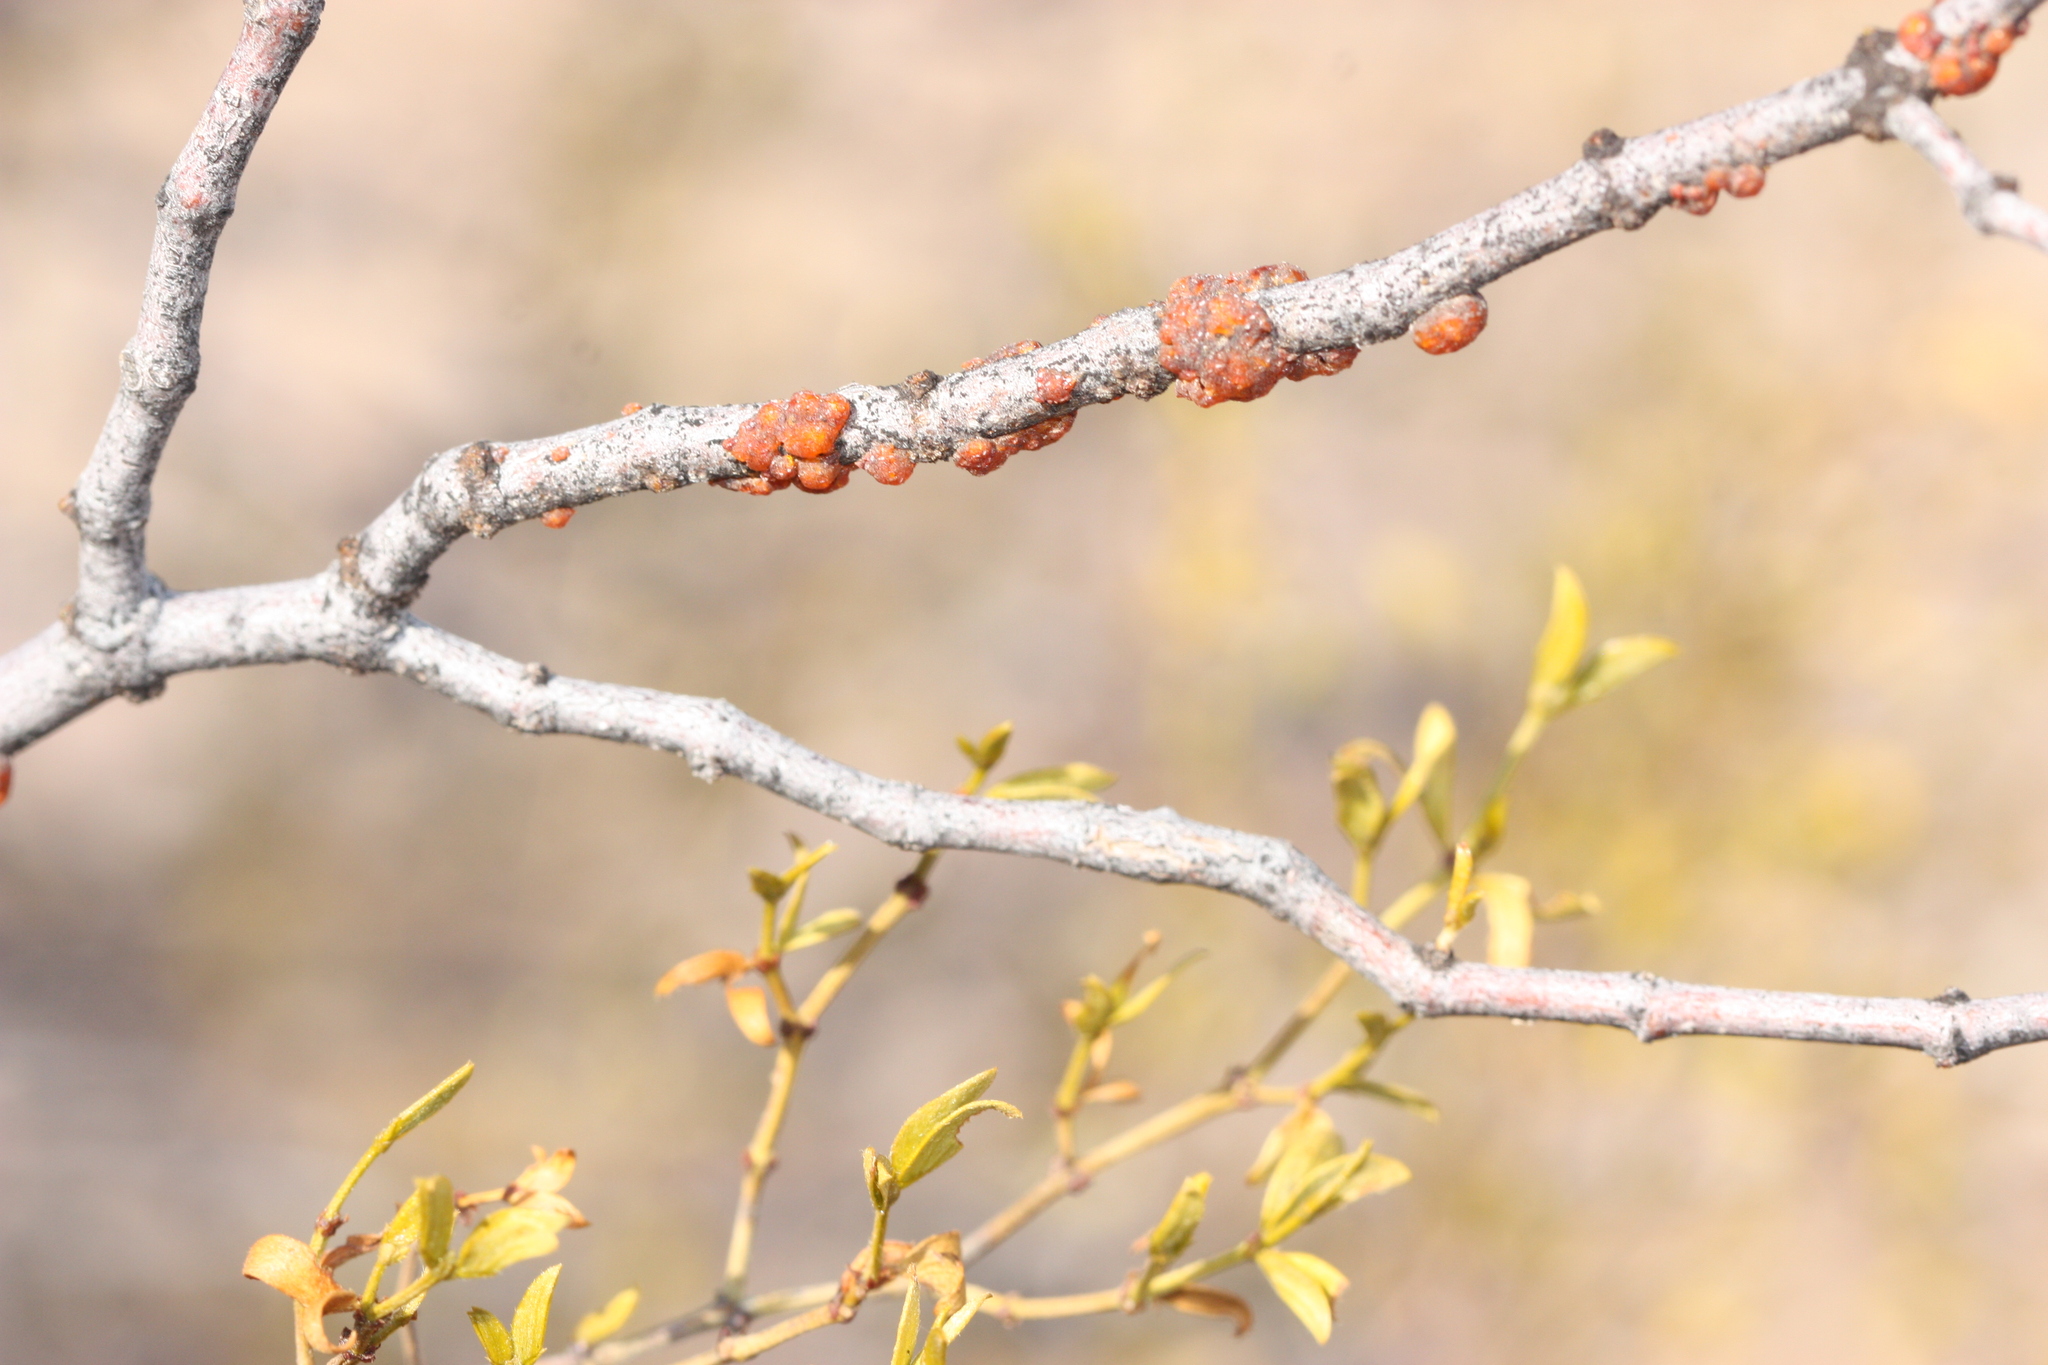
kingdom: Animalia
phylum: Arthropoda
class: Insecta
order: Hemiptera
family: Kerriidae
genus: Tachardiella
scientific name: Tachardiella larreae
